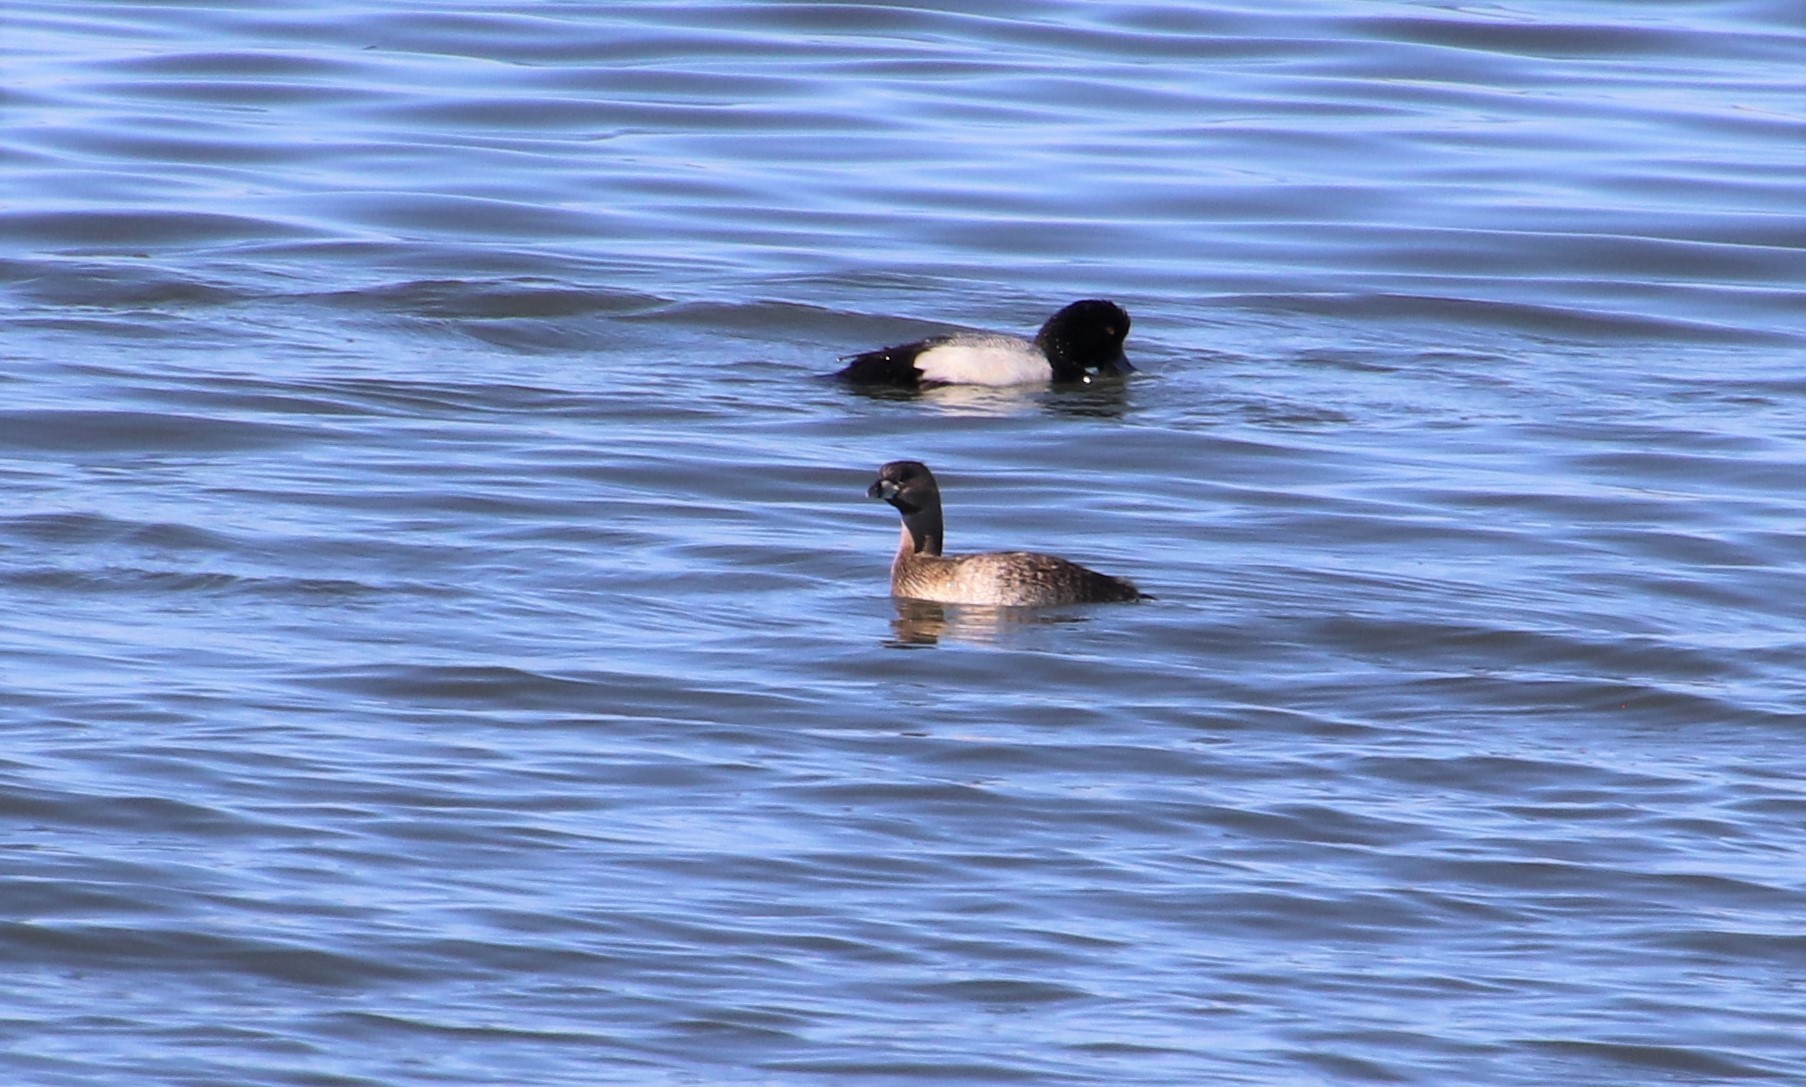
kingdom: Animalia
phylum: Chordata
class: Aves
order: Podicipediformes
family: Podicipedidae
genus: Podilymbus
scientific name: Podilymbus podiceps
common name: Pied-billed grebe
